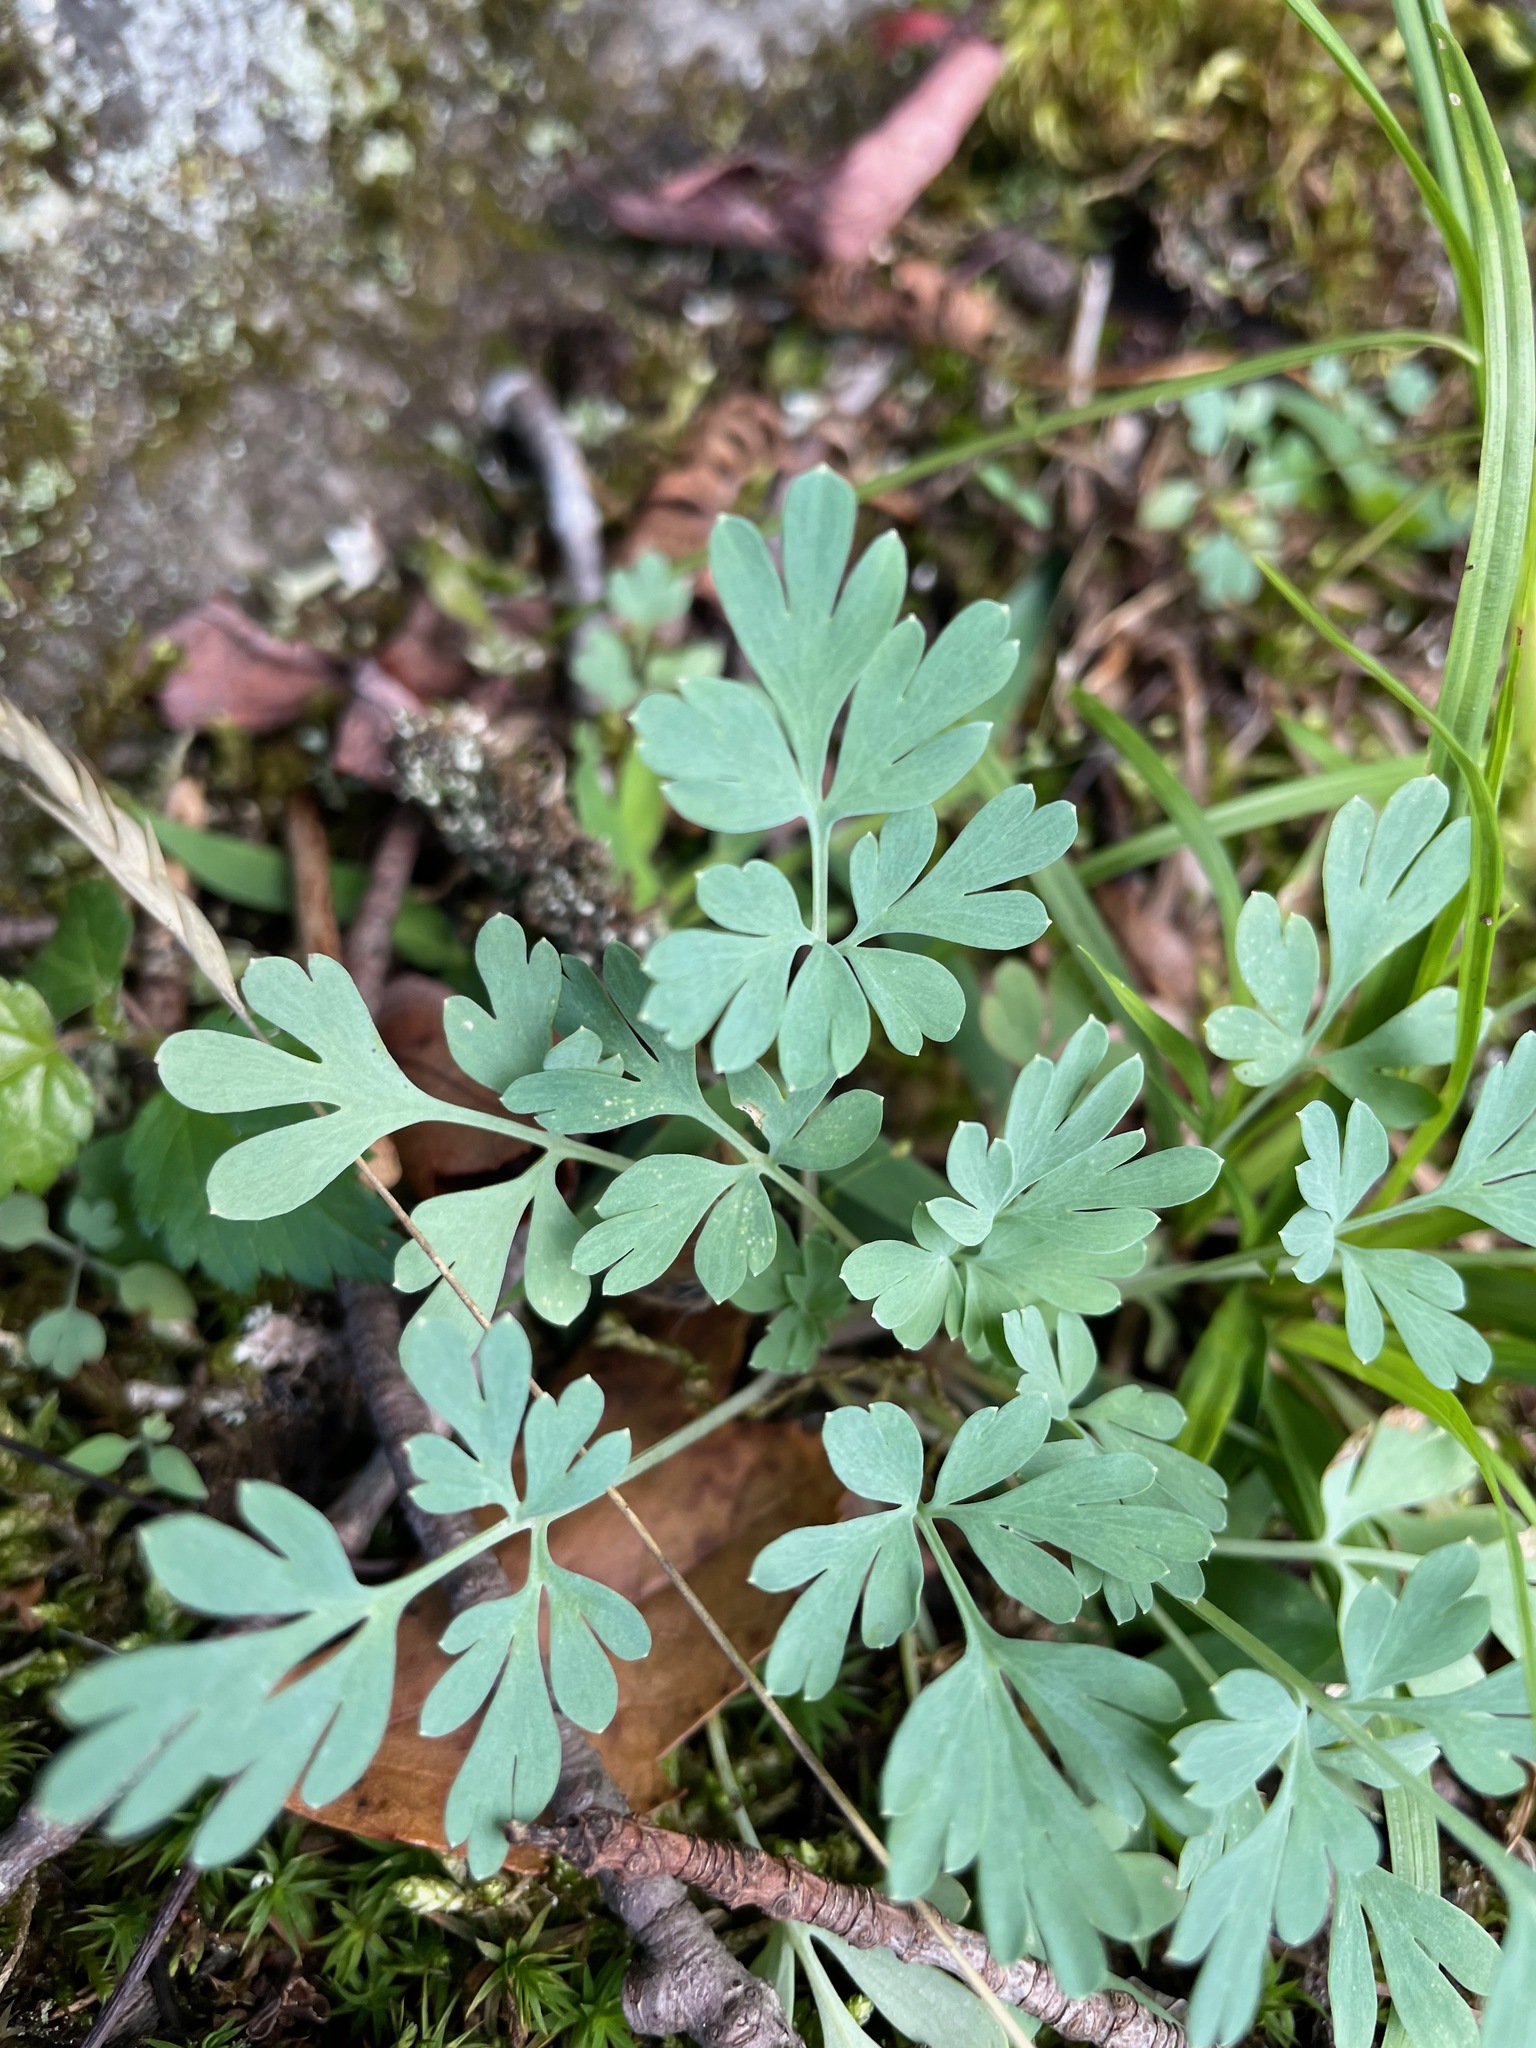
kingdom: Plantae
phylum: Tracheophyta
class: Magnoliopsida
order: Ranunculales
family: Papaveraceae
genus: Capnoides
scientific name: Capnoides sempervirens
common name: Rock harlequin
